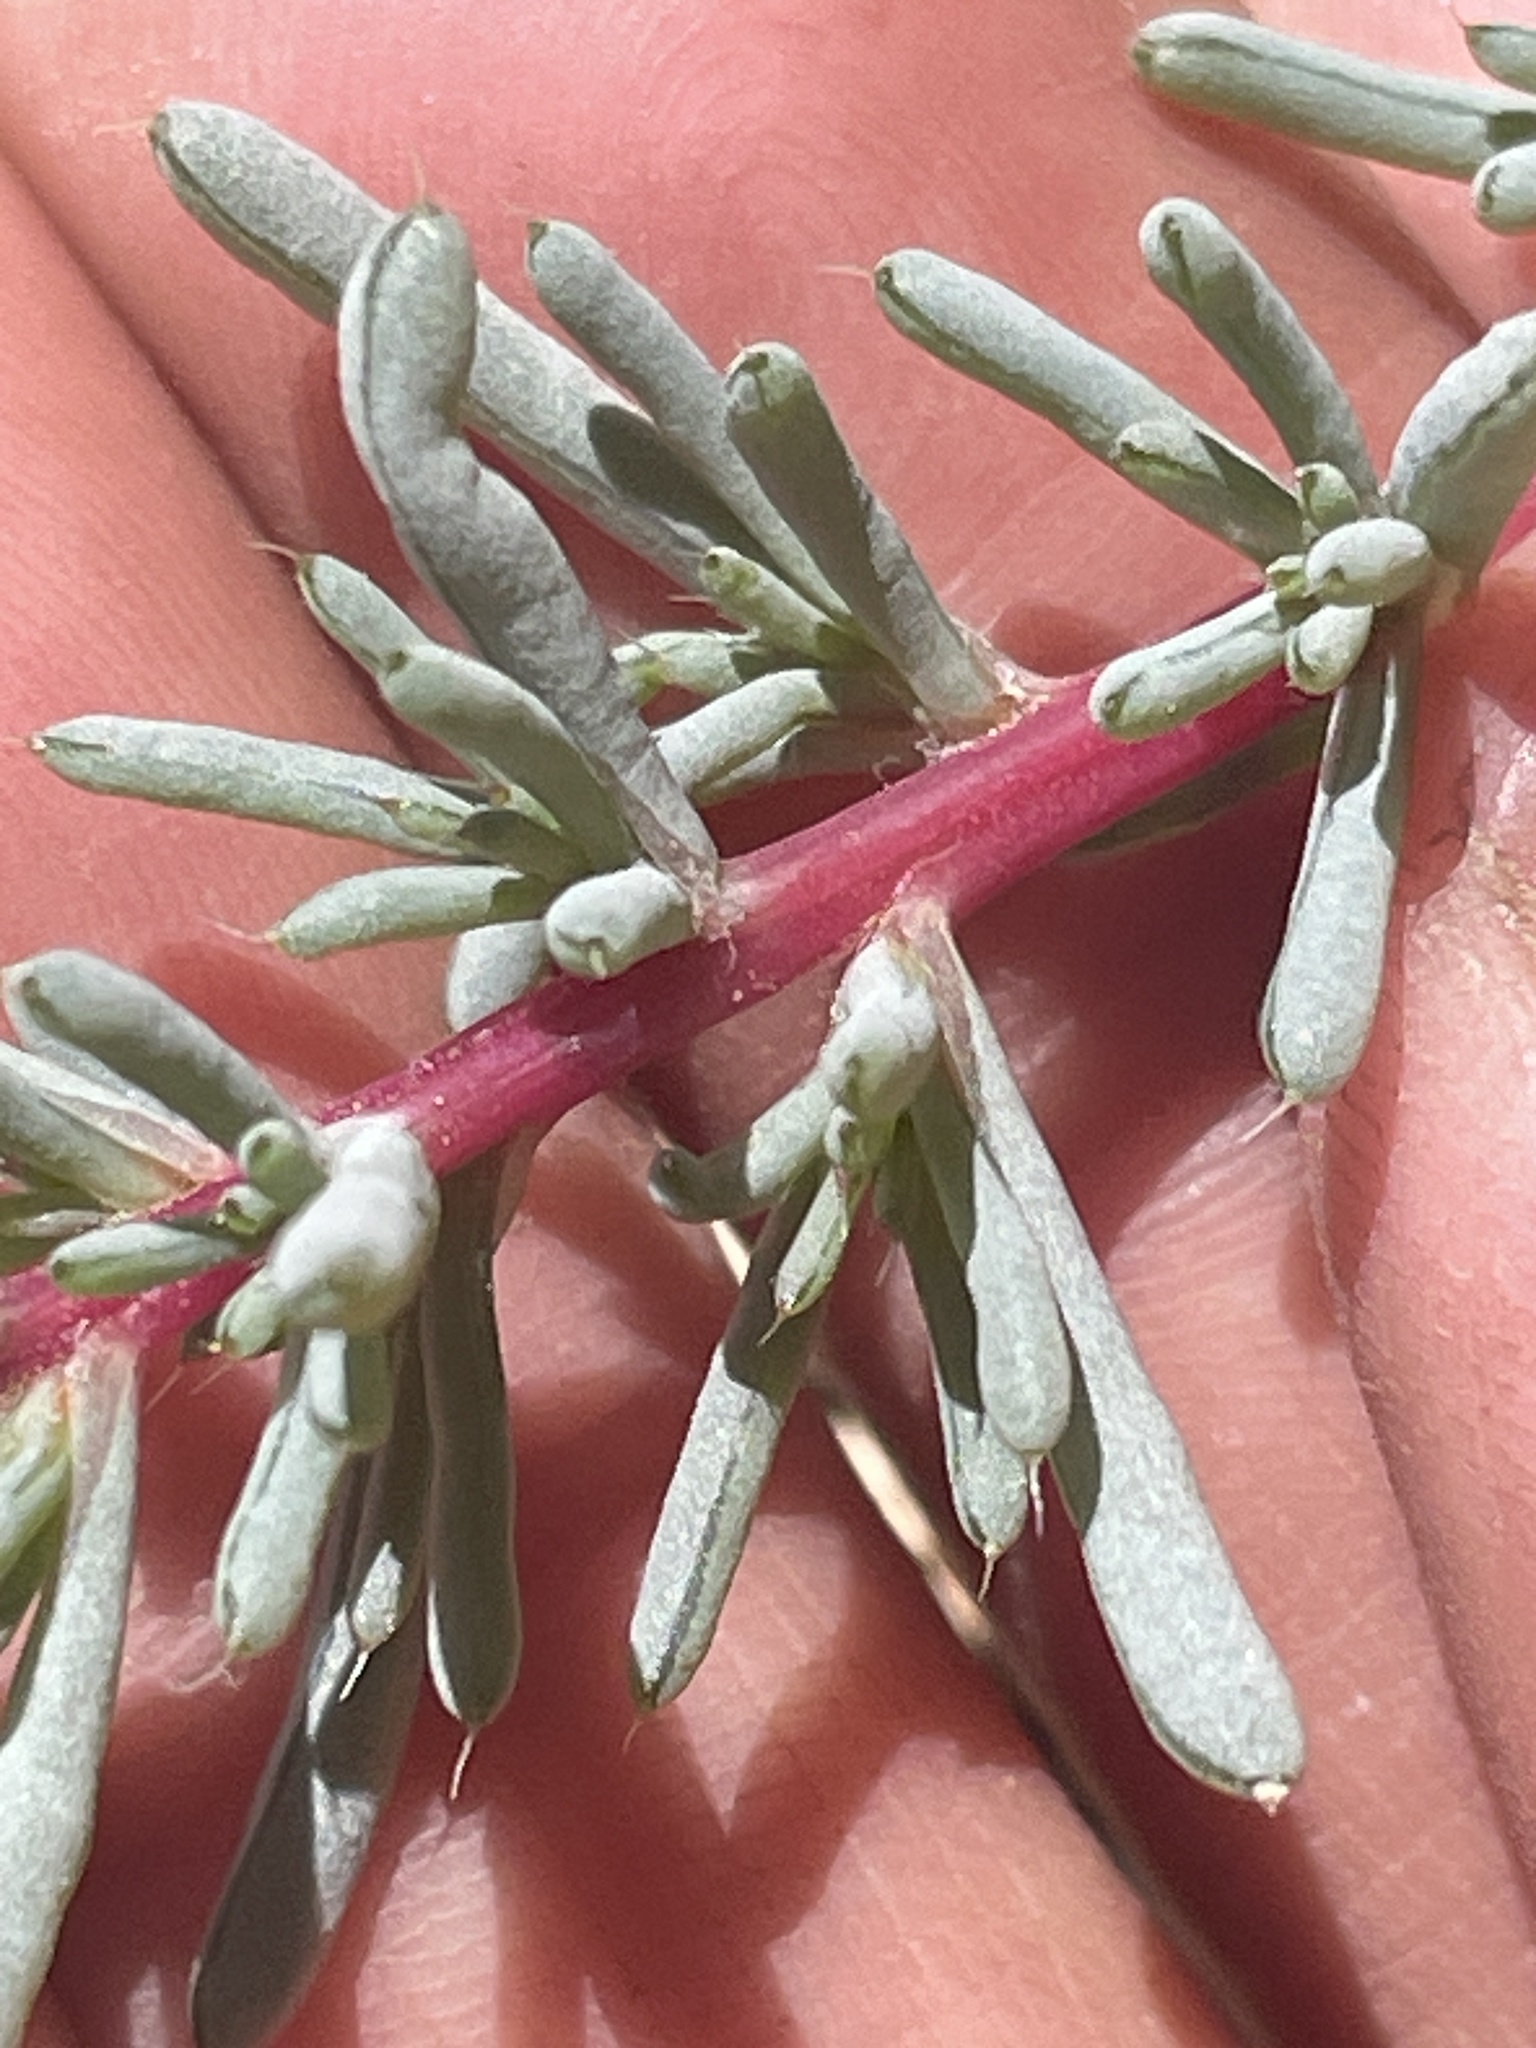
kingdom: Plantae
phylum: Tracheophyta
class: Magnoliopsida
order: Caryophyllales
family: Amaranthaceae
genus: Halogeton
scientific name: Halogeton glomeratus
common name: Saltlover
